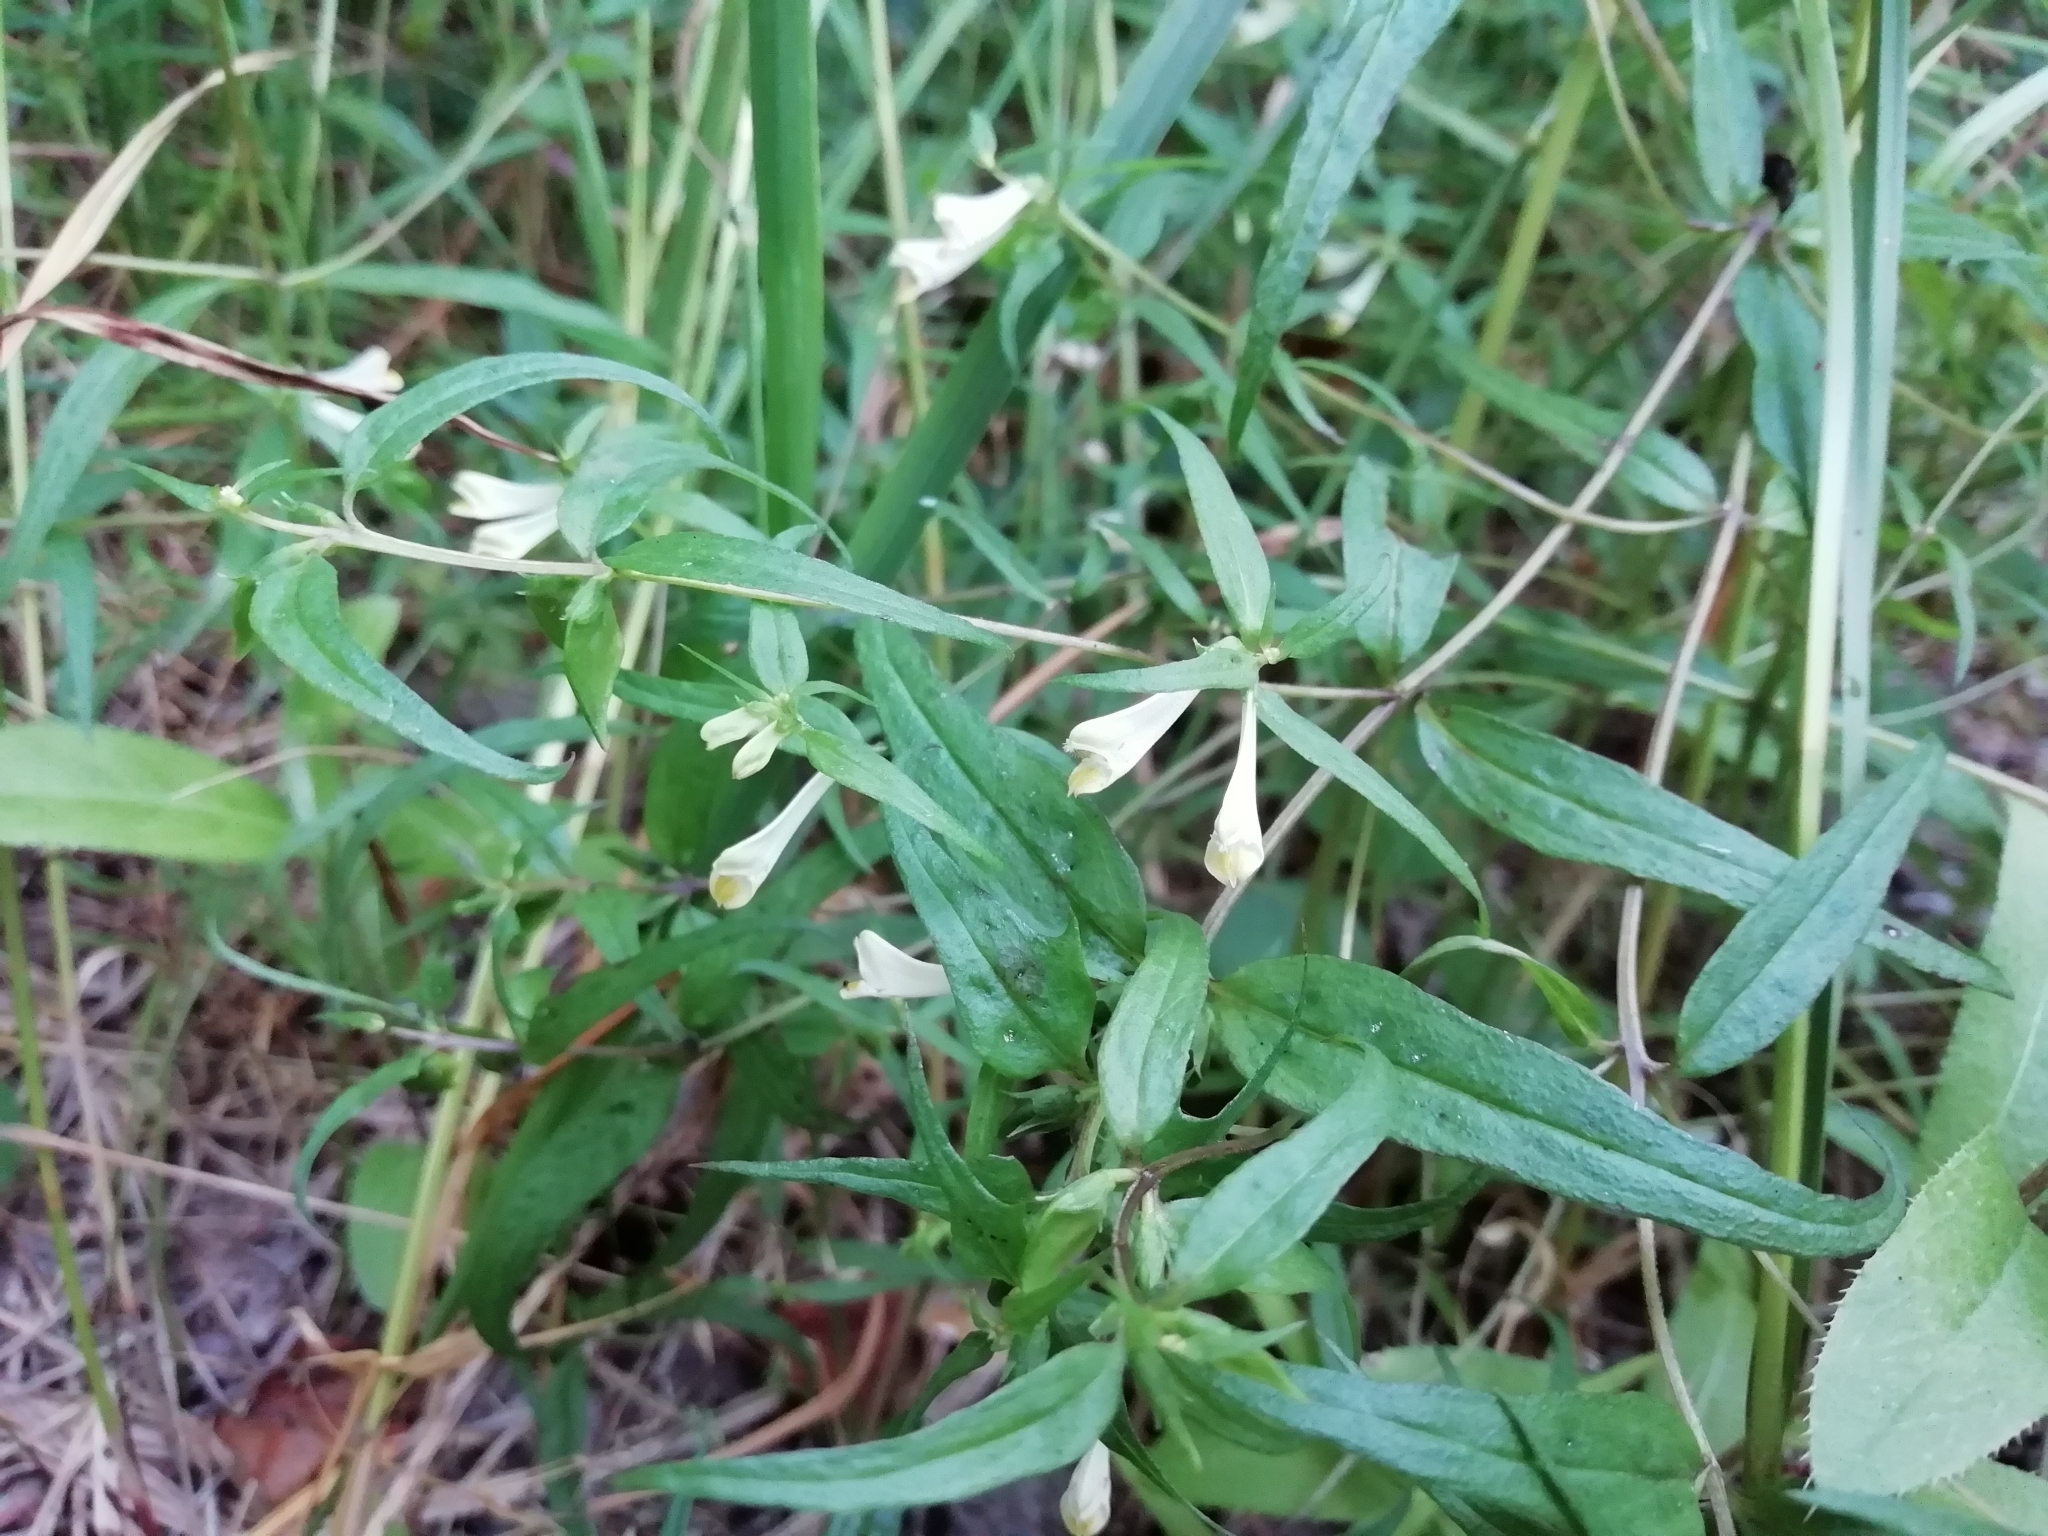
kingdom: Plantae
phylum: Tracheophyta
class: Magnoliopsida
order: Lamiales
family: Orobanchaceae
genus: Melampyrum
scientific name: Melampyrum pratense
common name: Common cow-wheat
